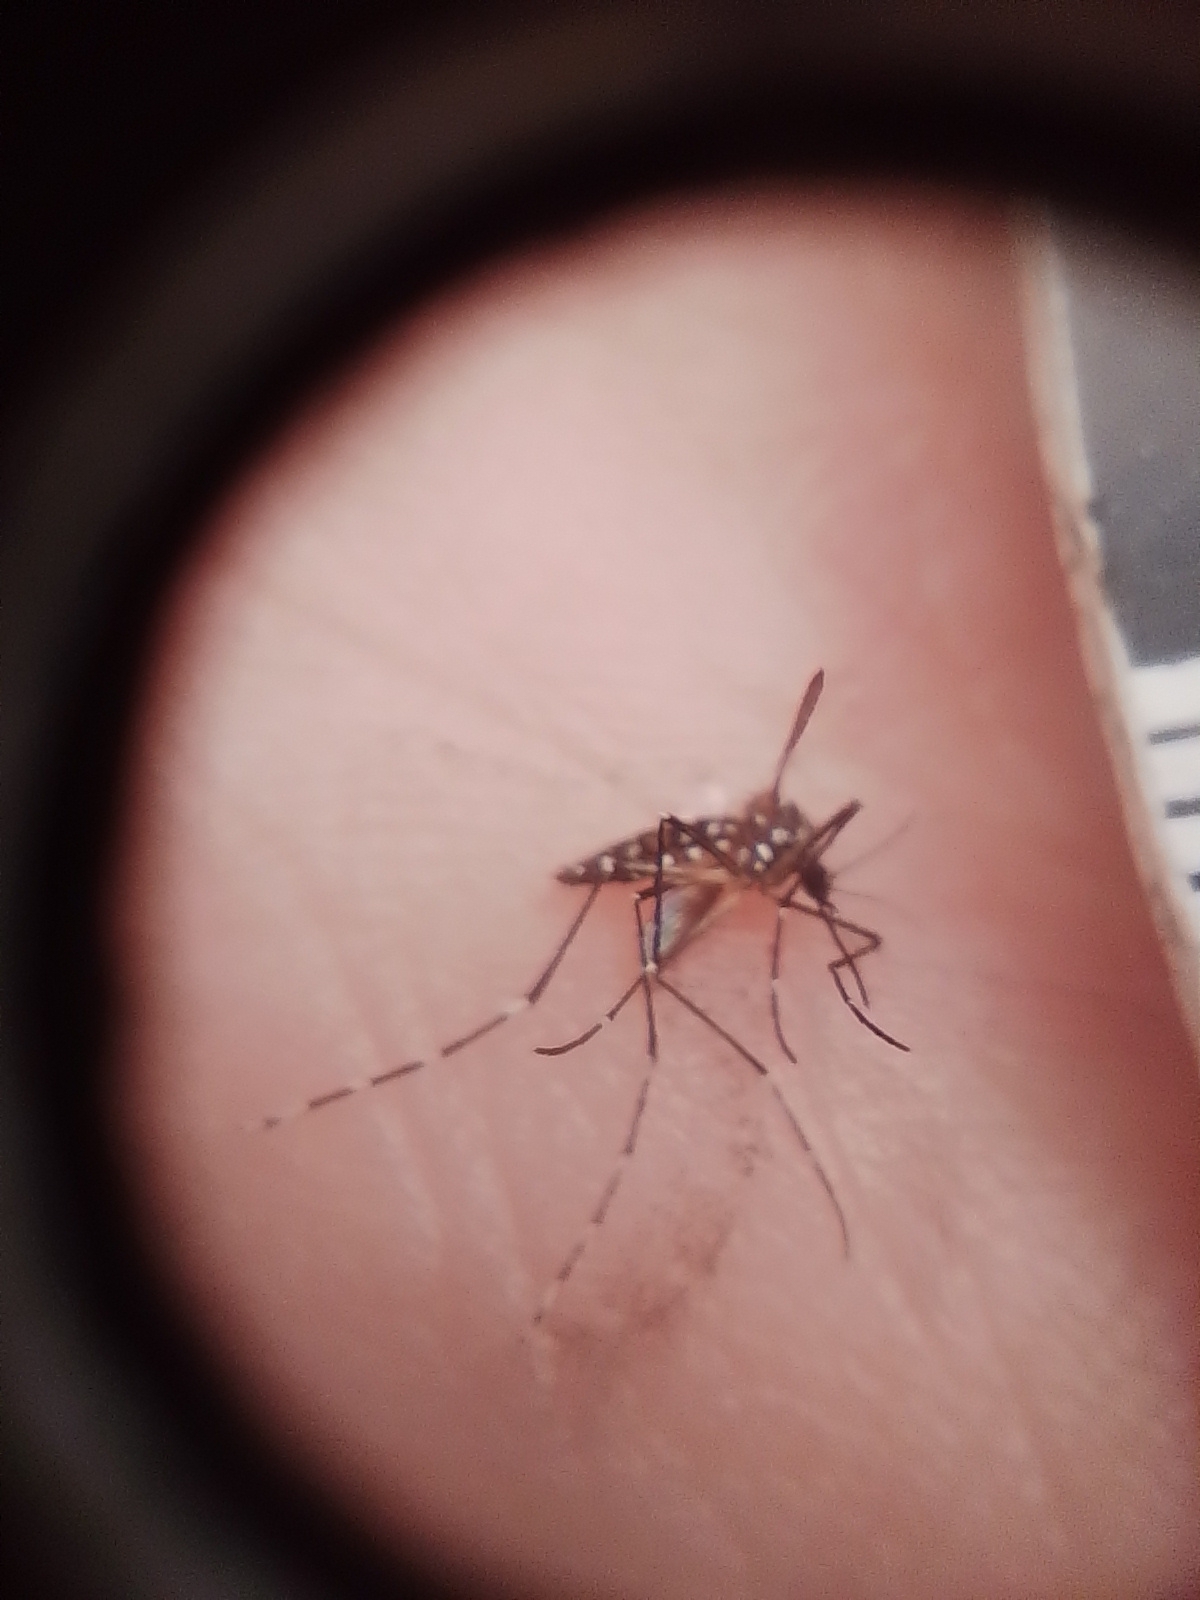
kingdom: Animalia
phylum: Arthropoda
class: Insecta
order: Diptera
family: Culicidae
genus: Aedes
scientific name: Aedes aegypti
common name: Yellow fever mosquito
